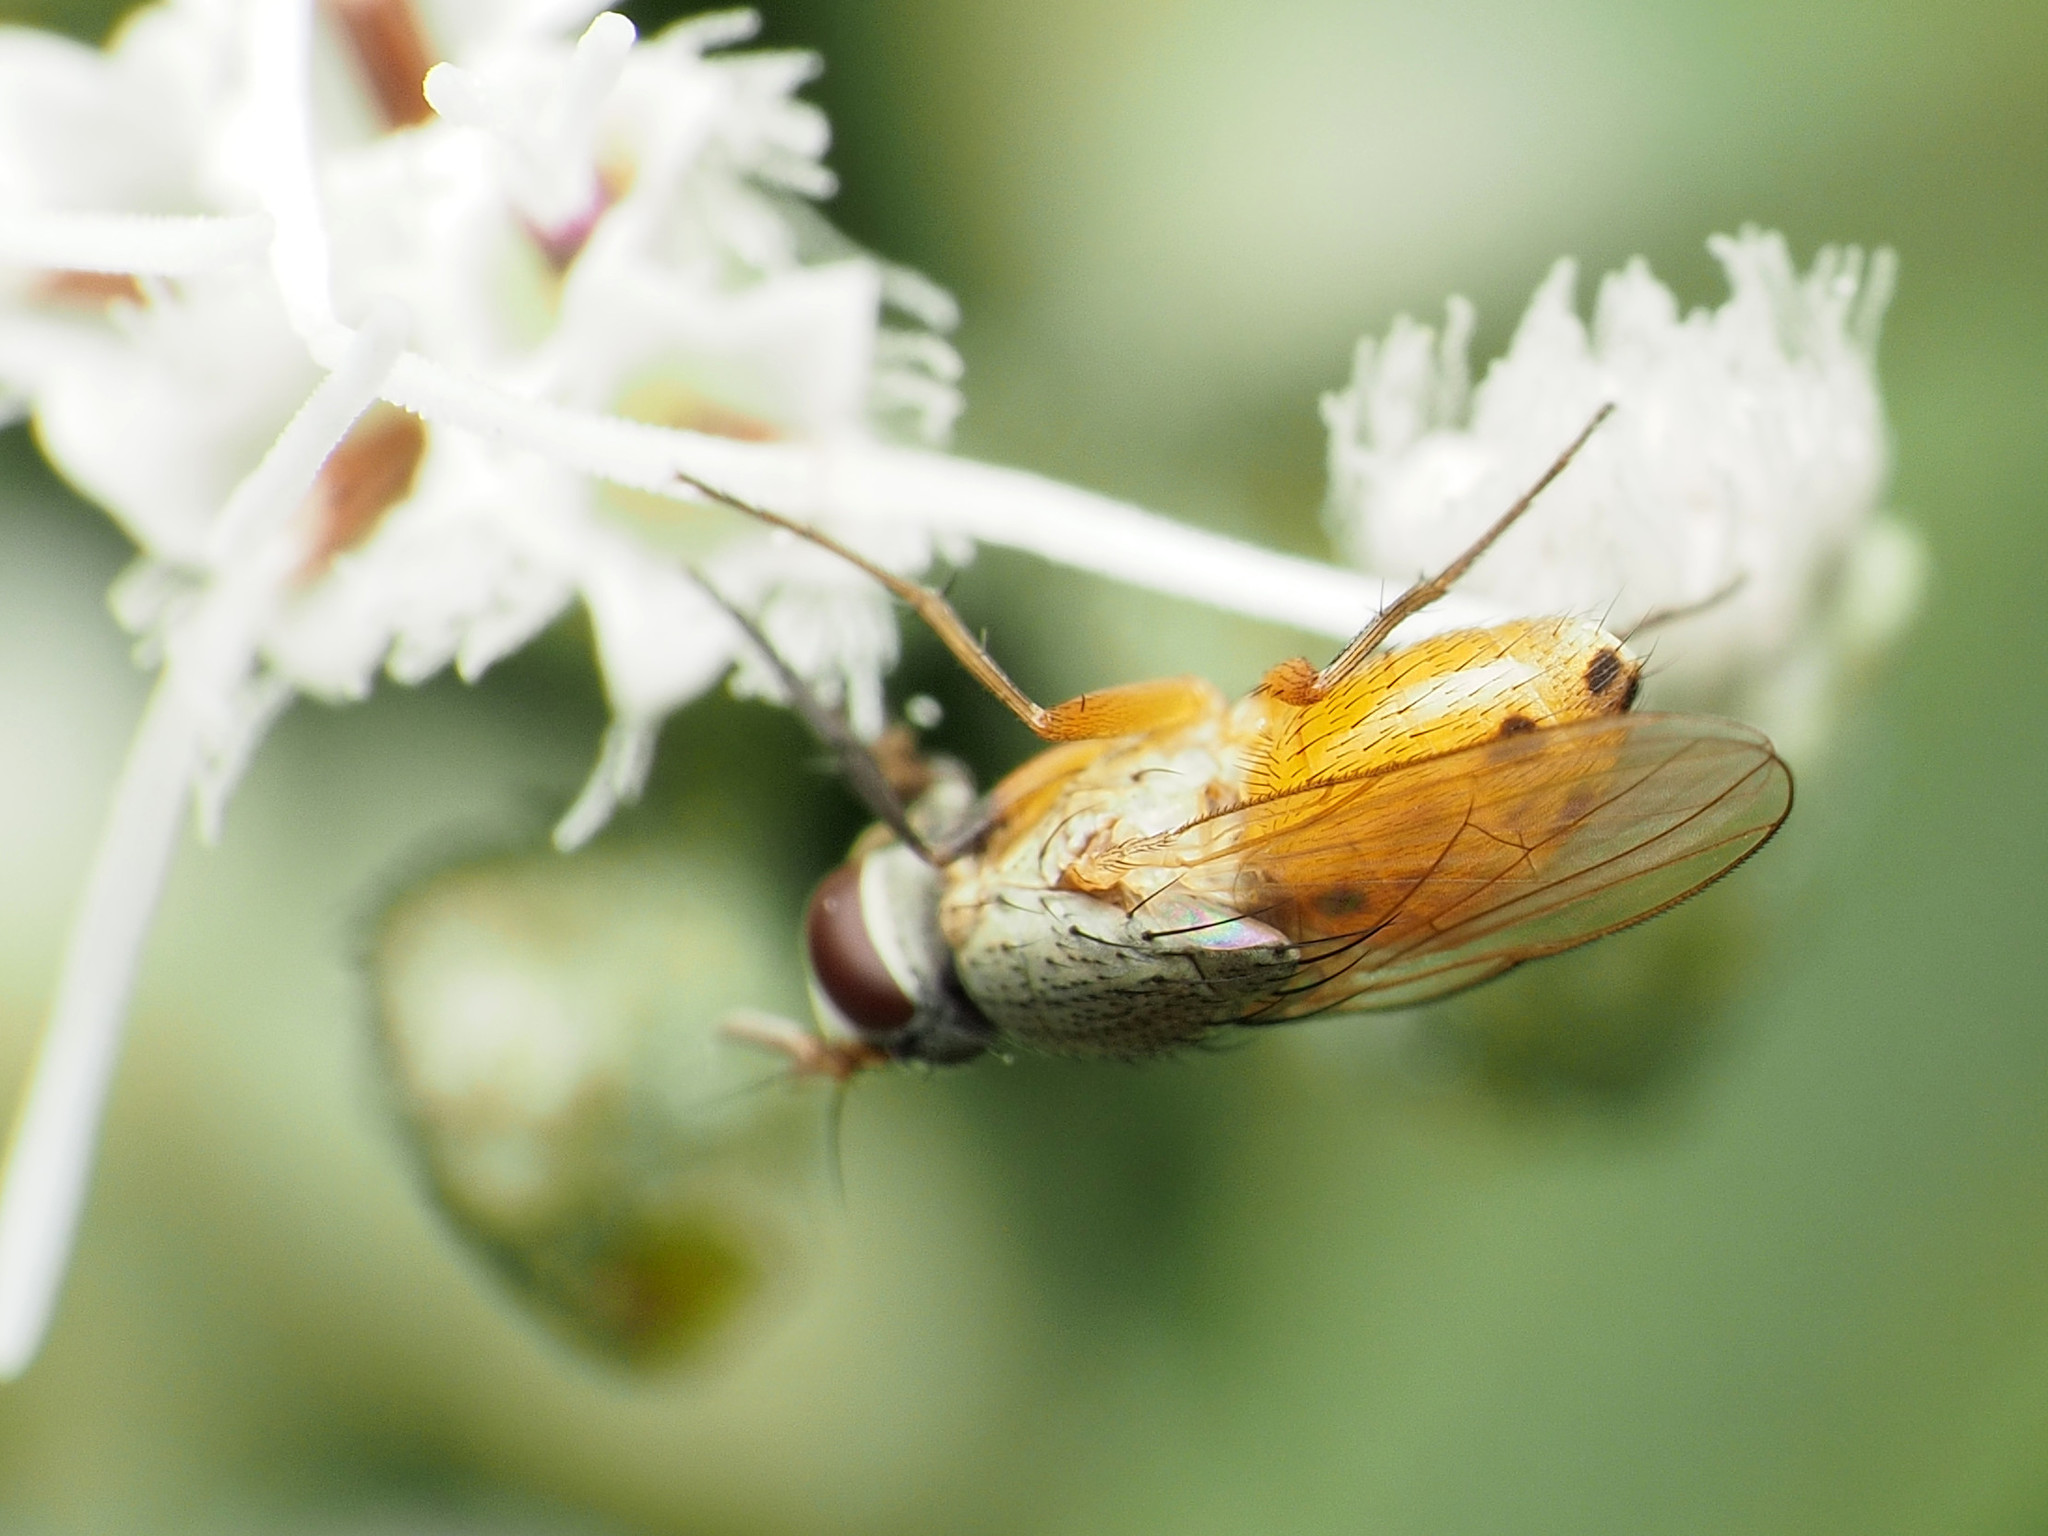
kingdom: Animalia
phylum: Arthropoda
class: Insecta
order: Diptera
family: Muscidae
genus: Atherigona
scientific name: Atherigona reversura
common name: Bermudagrass stem maggot
